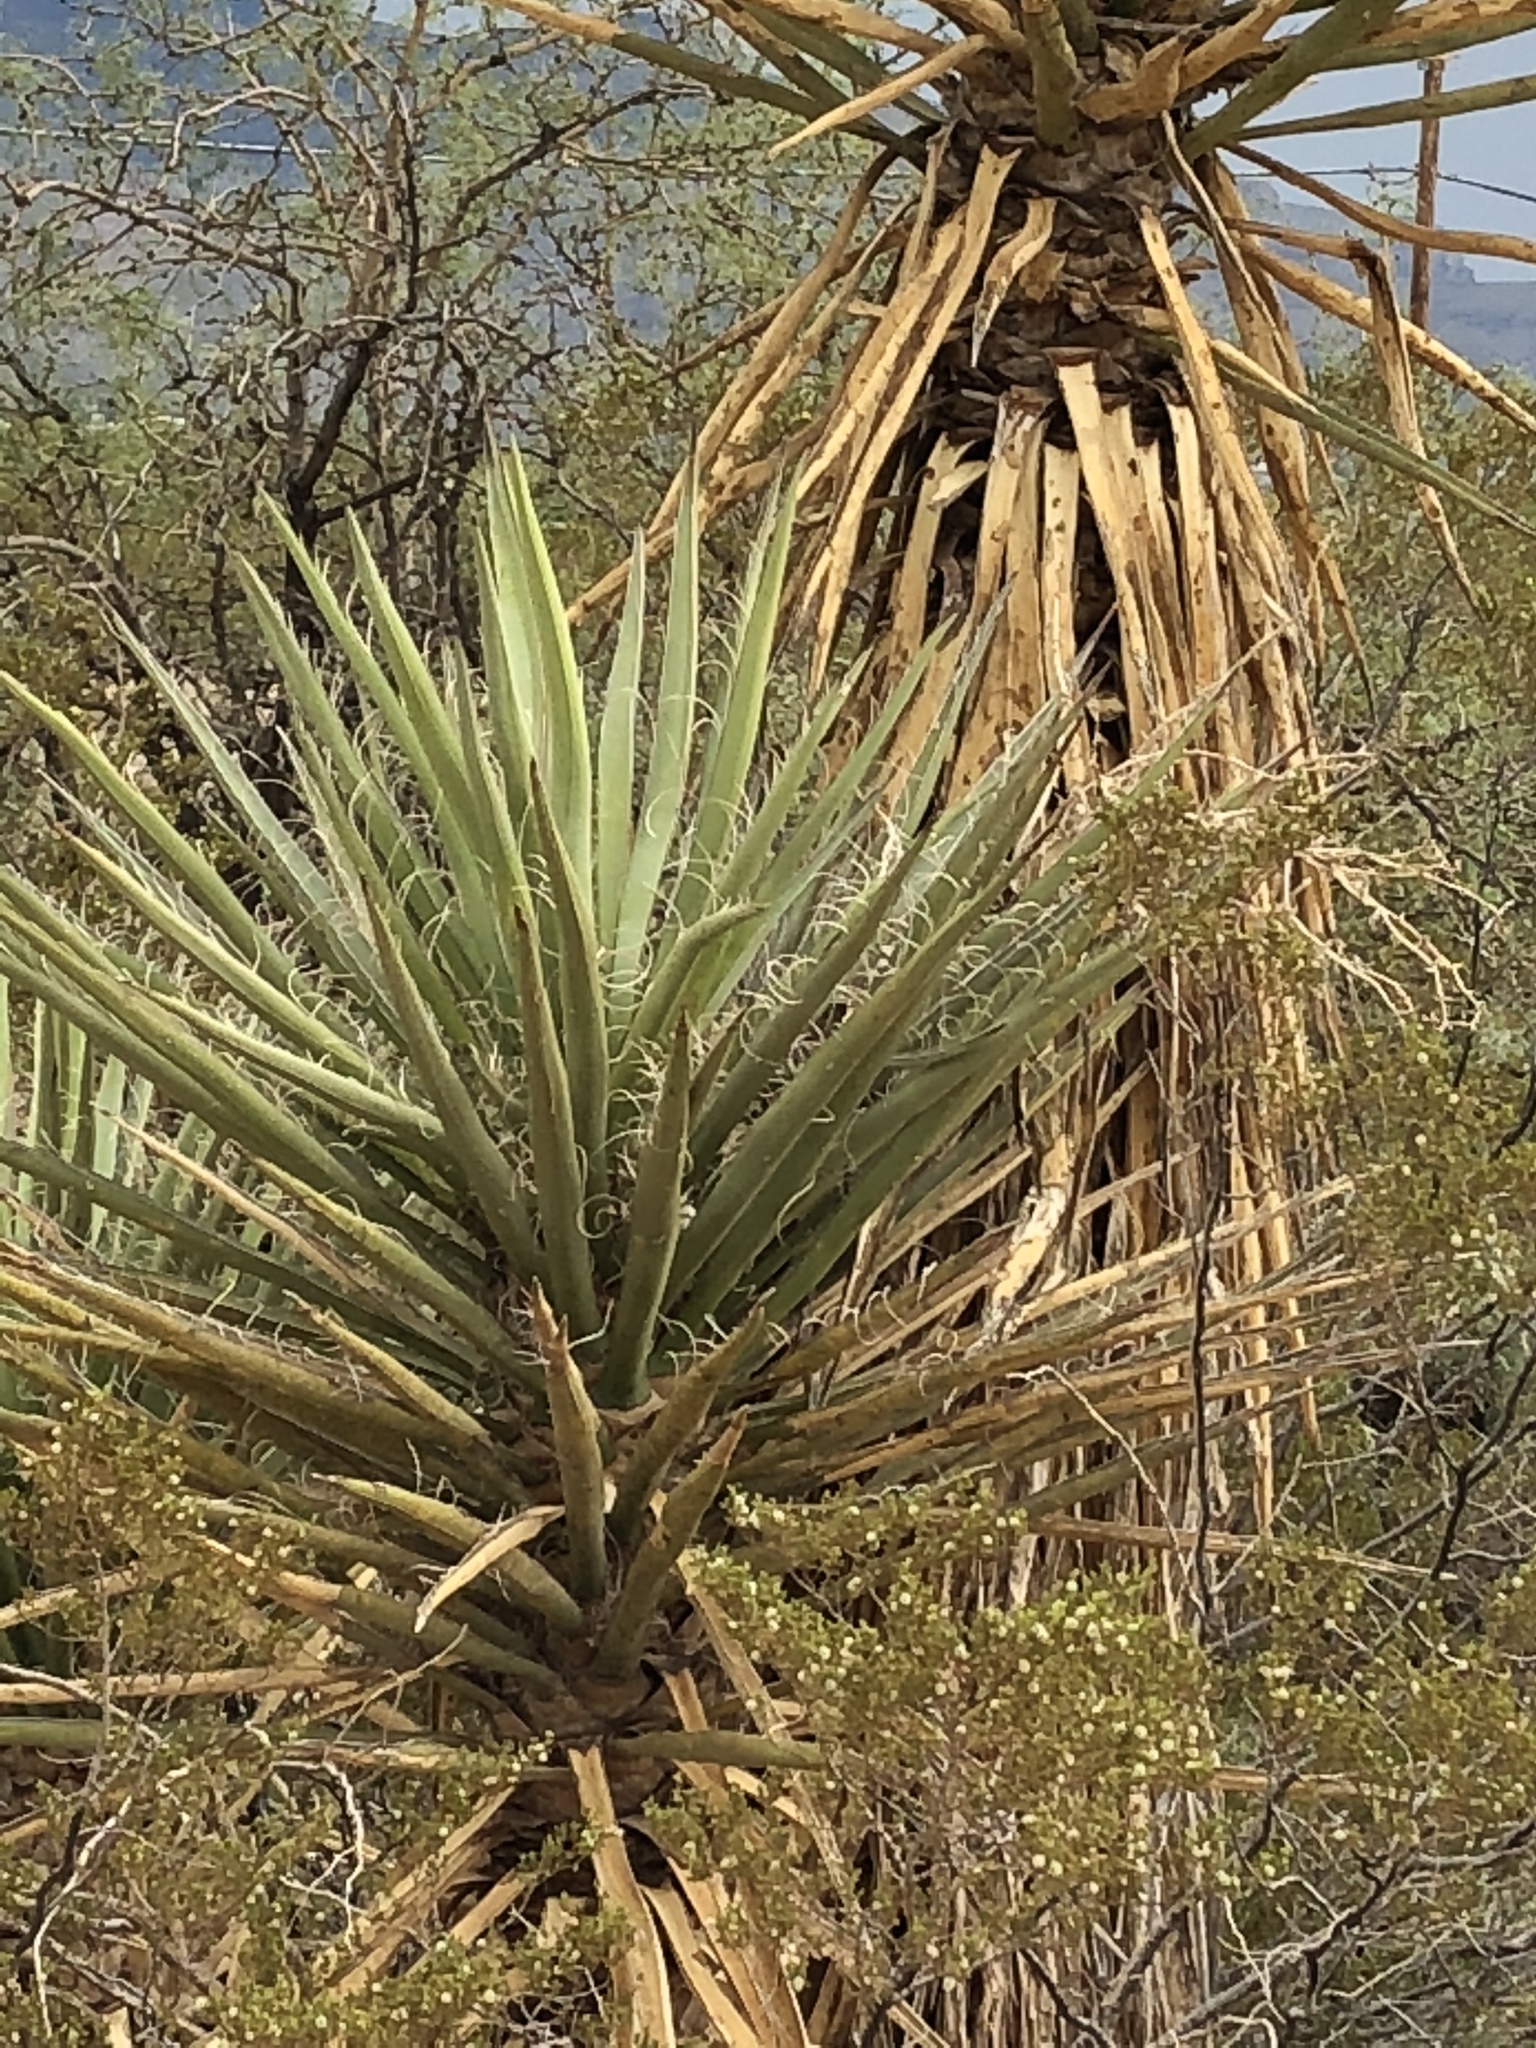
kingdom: Plantae
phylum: Tracheophyta
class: Liliopsida
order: Asparagales
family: Asparagaceae
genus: Yucca
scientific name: Yucca treculiana
